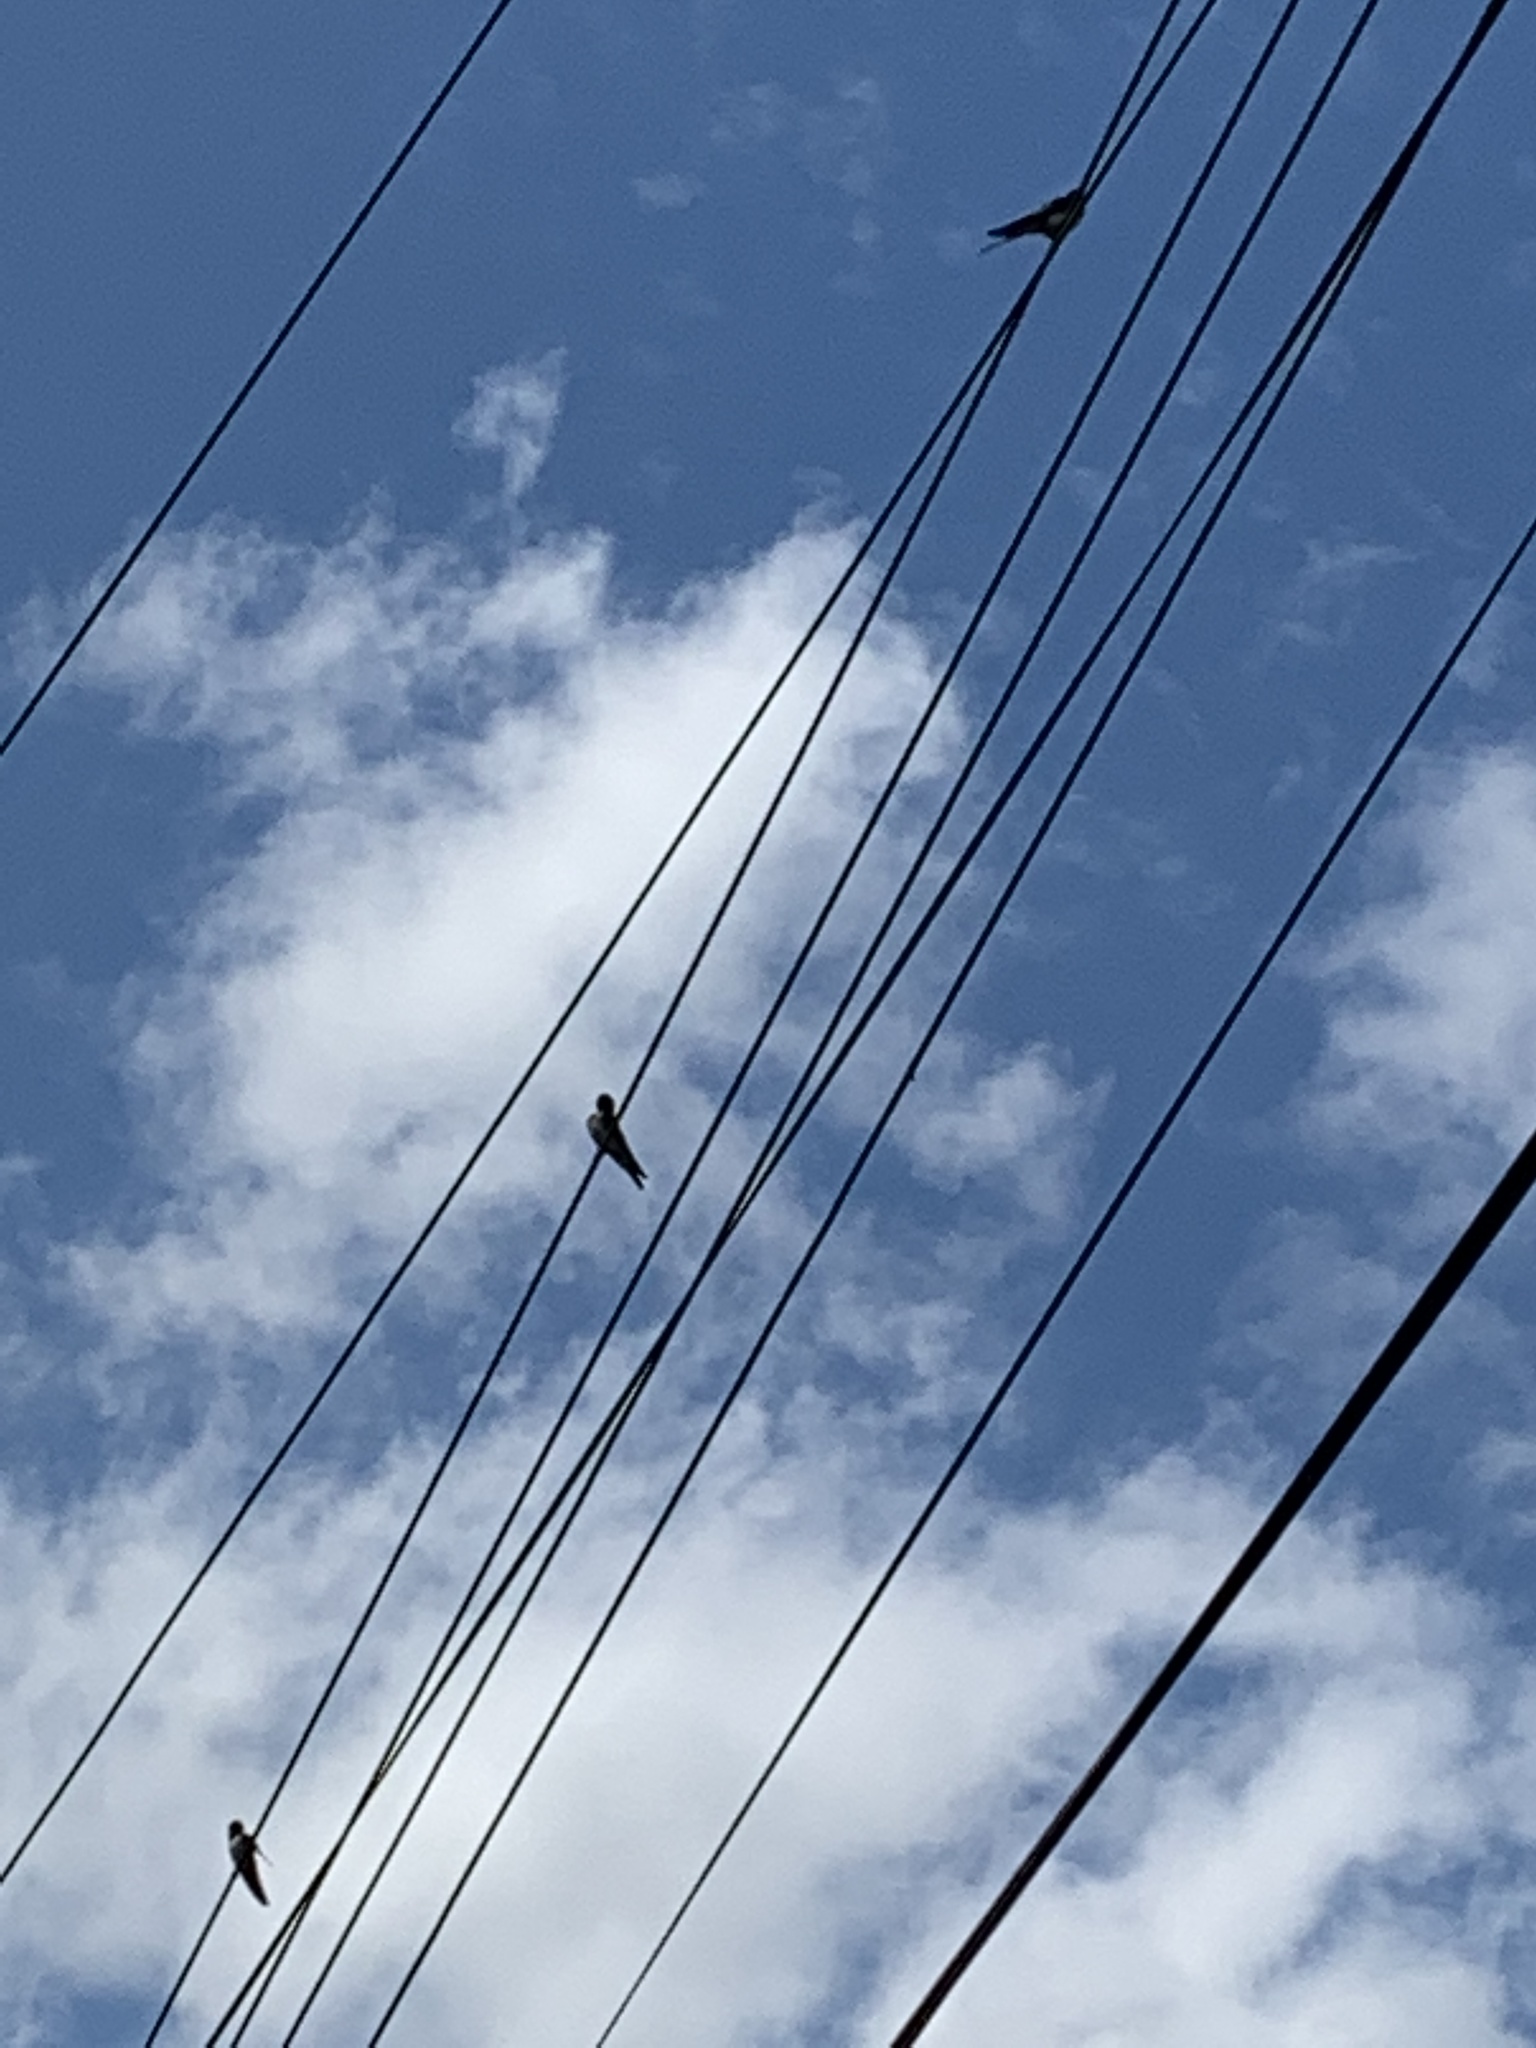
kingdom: Animalia
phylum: Chordata
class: Aves
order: Passeriformes
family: Hirundinidae
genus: Hirundo
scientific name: Hirundo rustica
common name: Barn swallow
